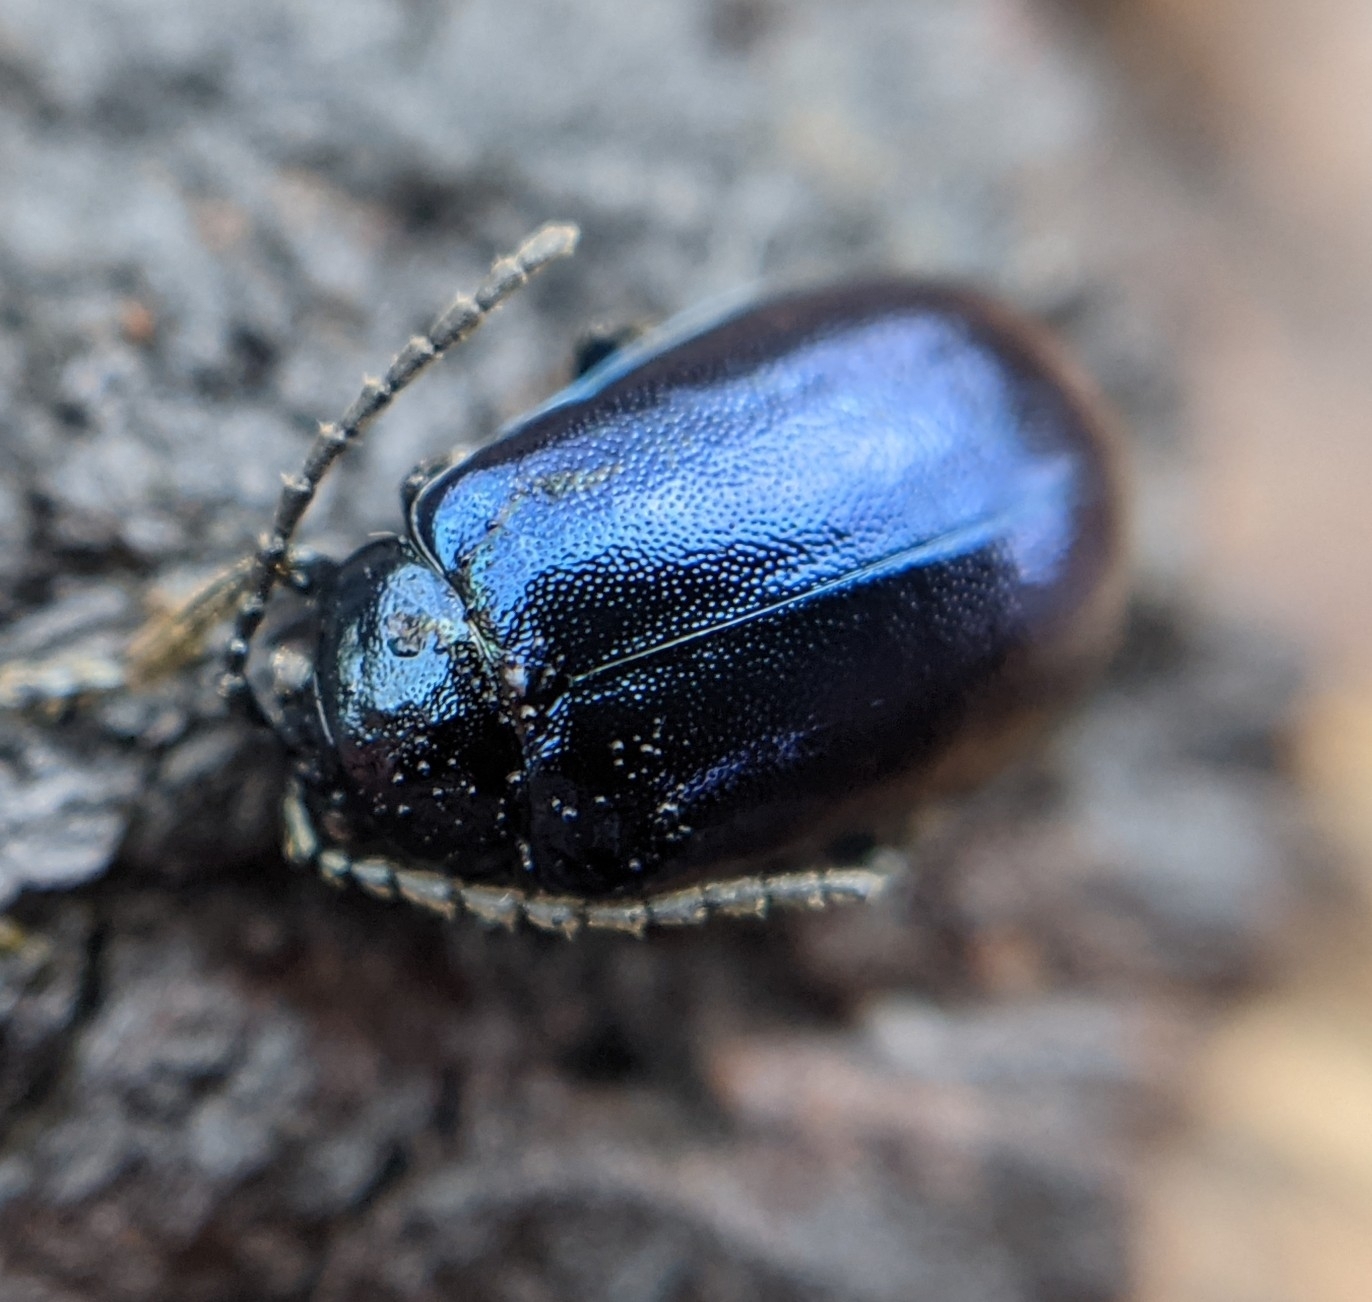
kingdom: Animalia
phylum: Arthropoda
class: Insecta
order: Coleoptera
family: Chrysomelidae
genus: Agelastica
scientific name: Agelastica alni
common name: Alder leaf beetle
